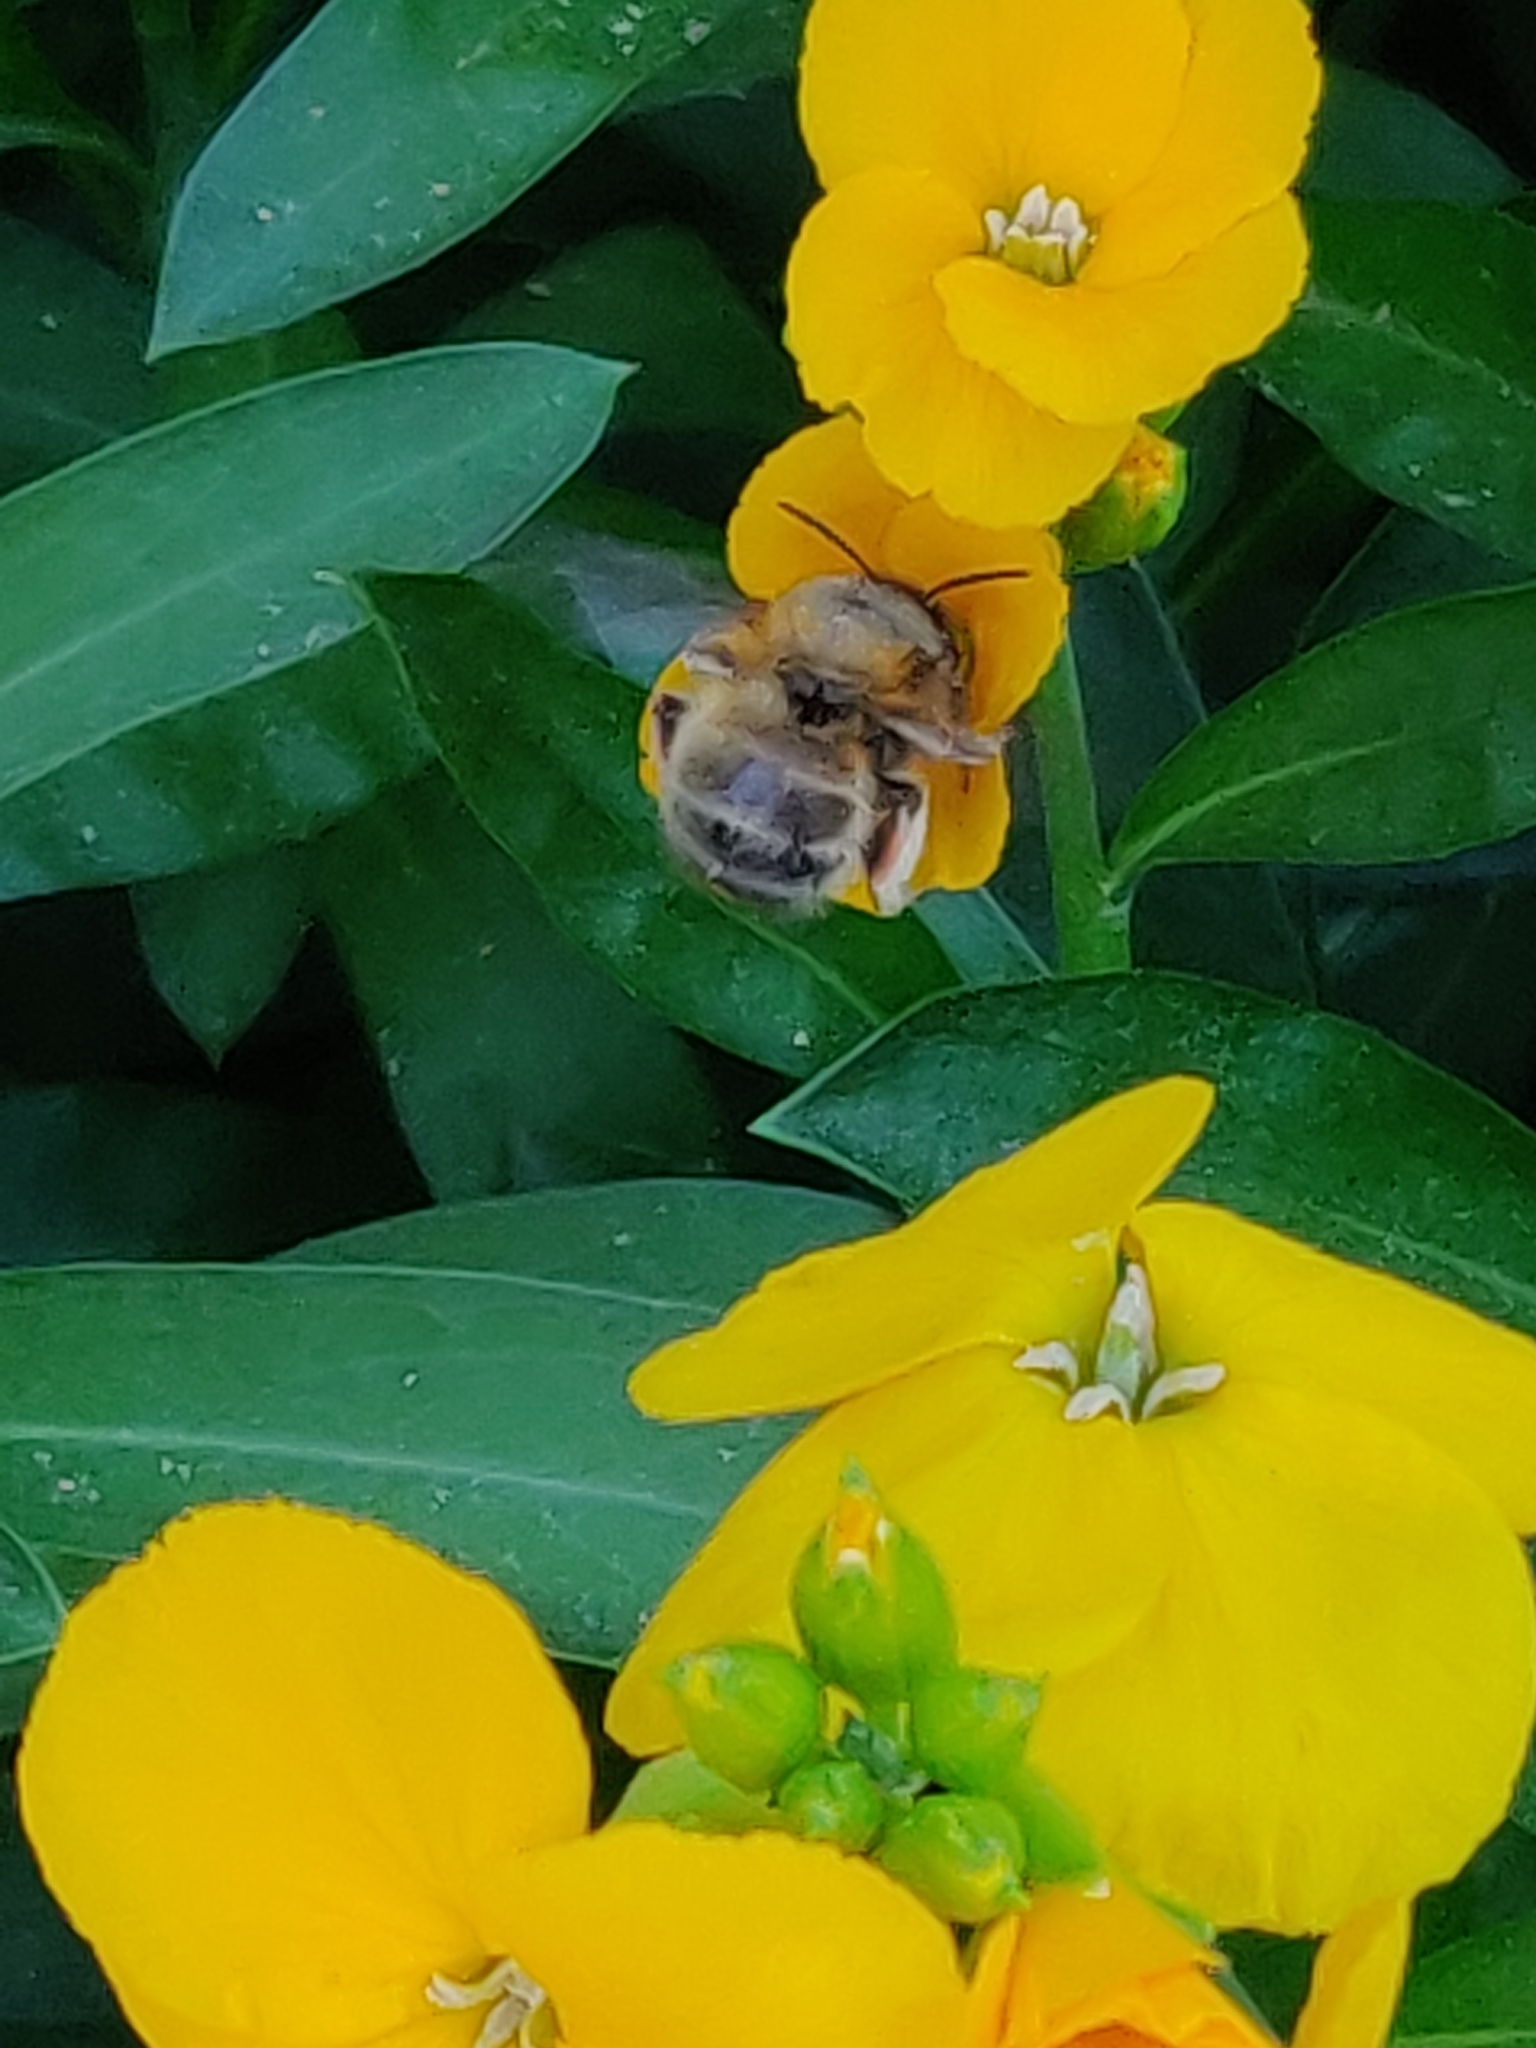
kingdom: Animalia
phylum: Arthropoda
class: Insecta
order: Hymenoptera
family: Apidae
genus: Anthophora
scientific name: Anthophora plumipes
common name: Hairy-footed flower bee
